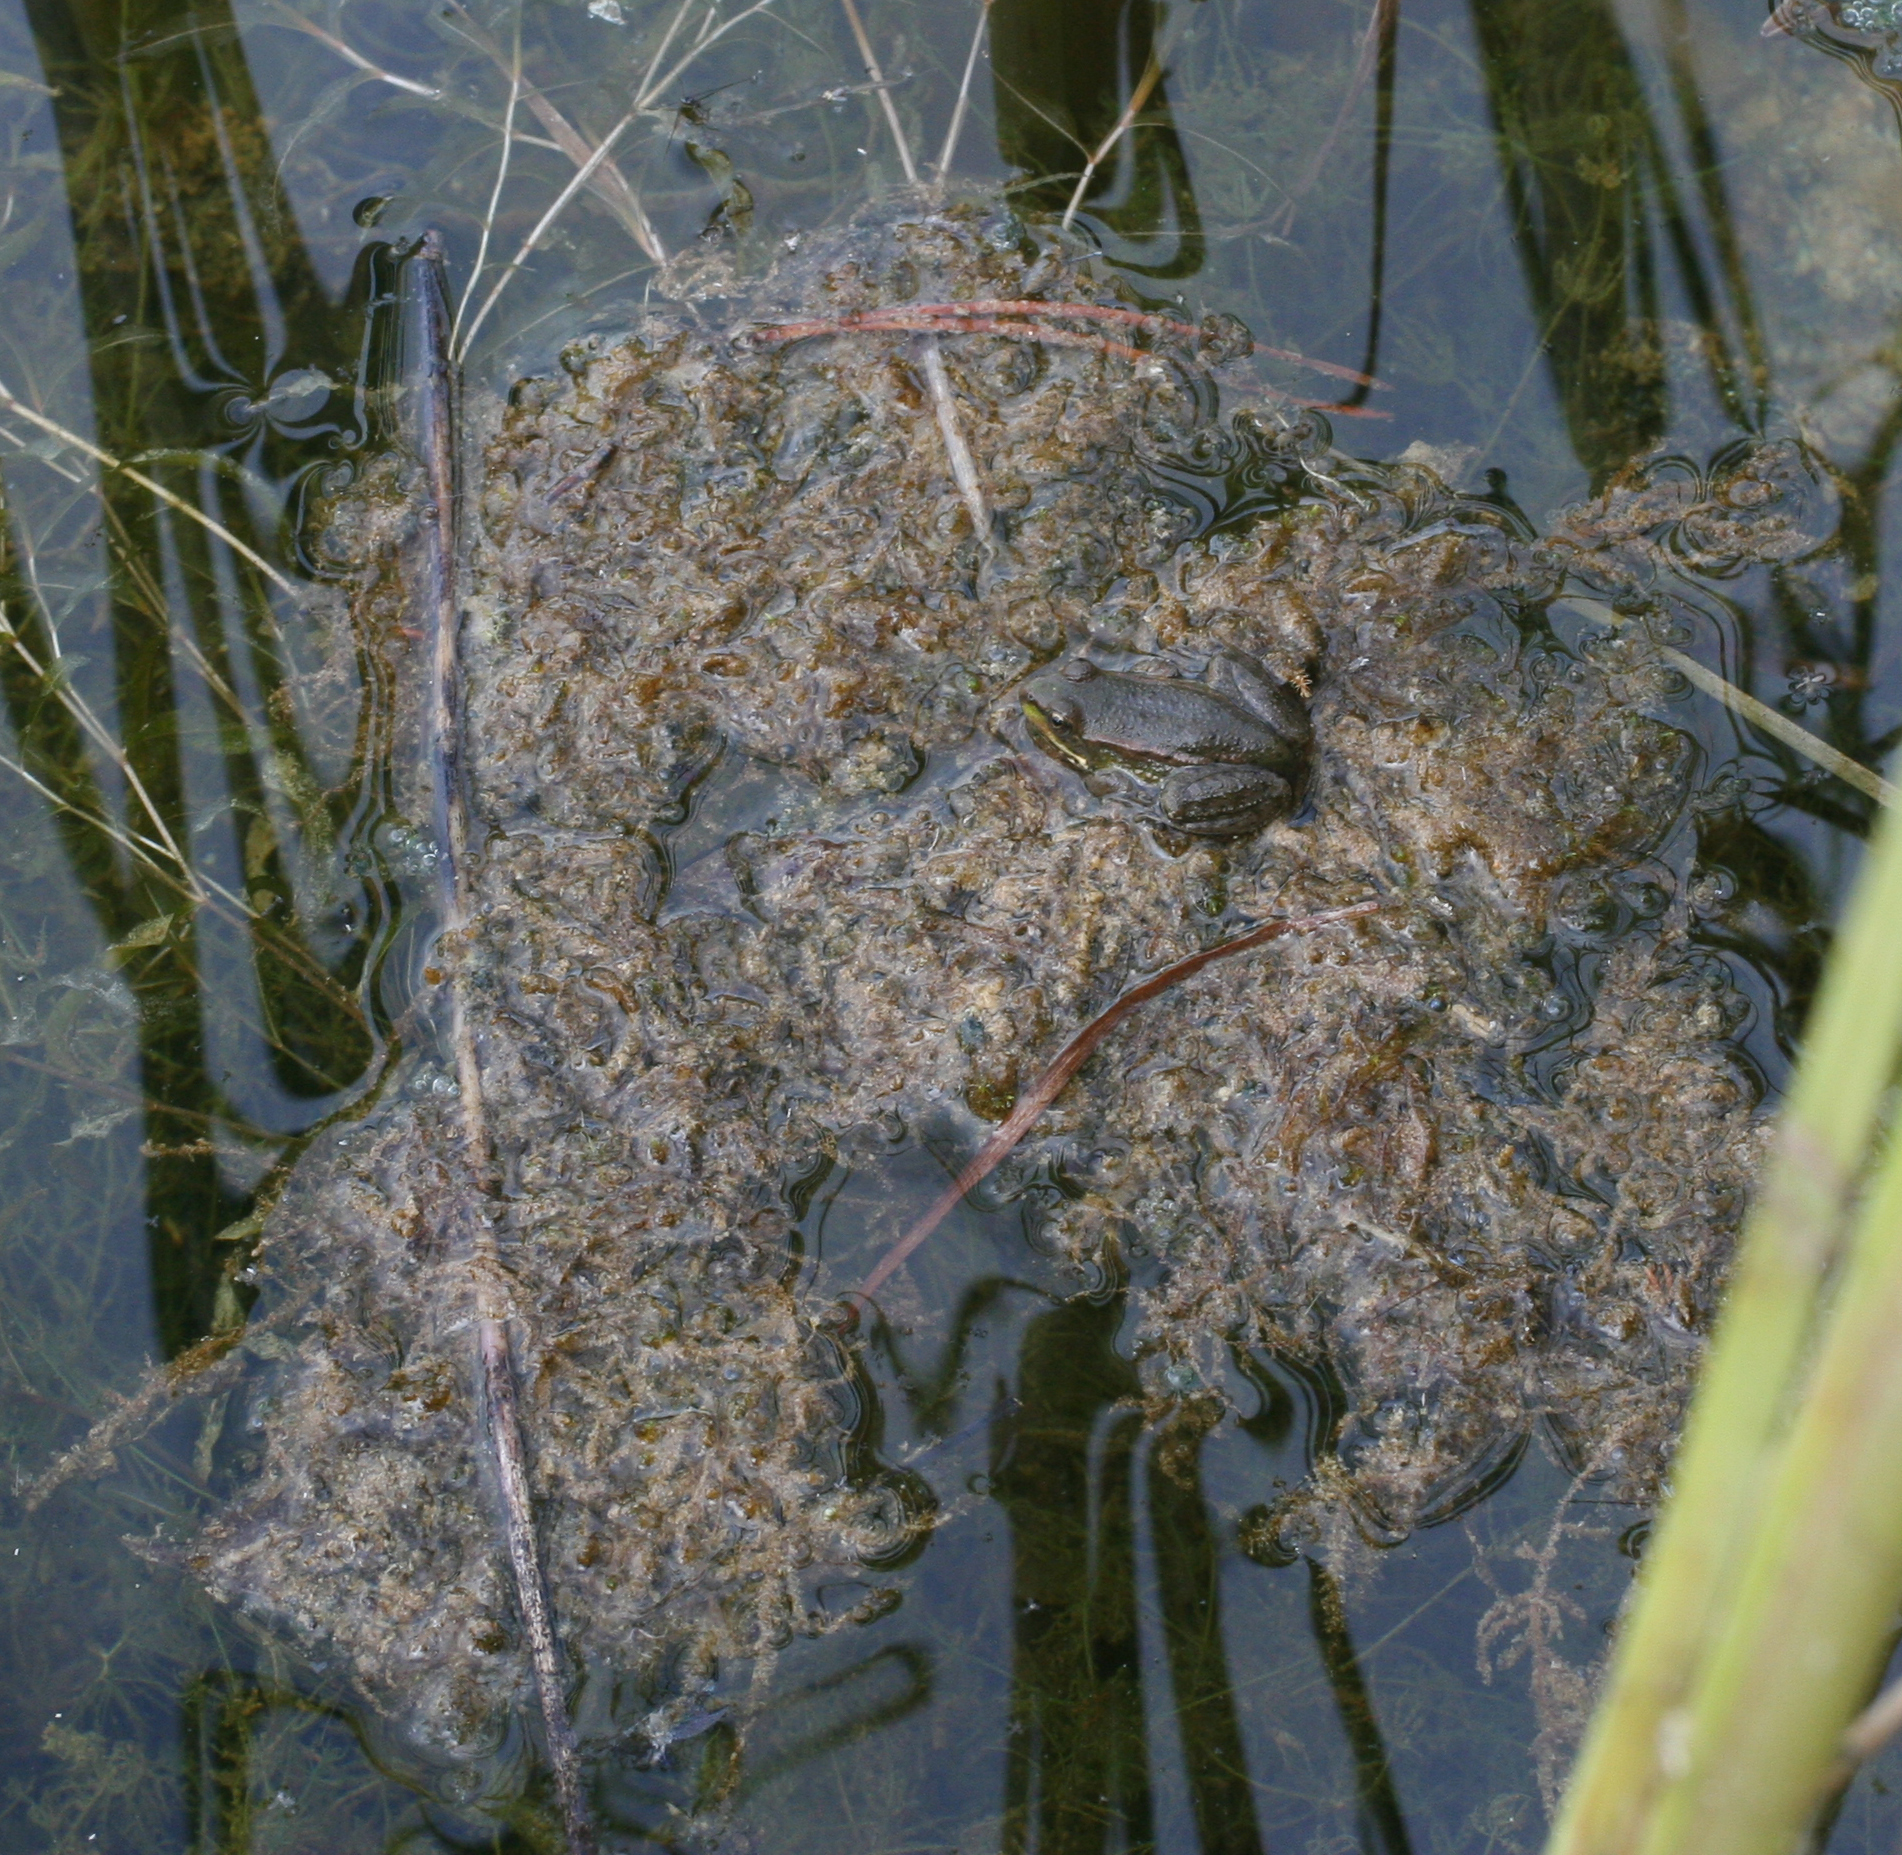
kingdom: Animalia
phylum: Chordata
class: Amphibia
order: Anura
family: Ranidae
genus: Pelophylax
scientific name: Pelophylax ridibundus
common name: Marsh frog
